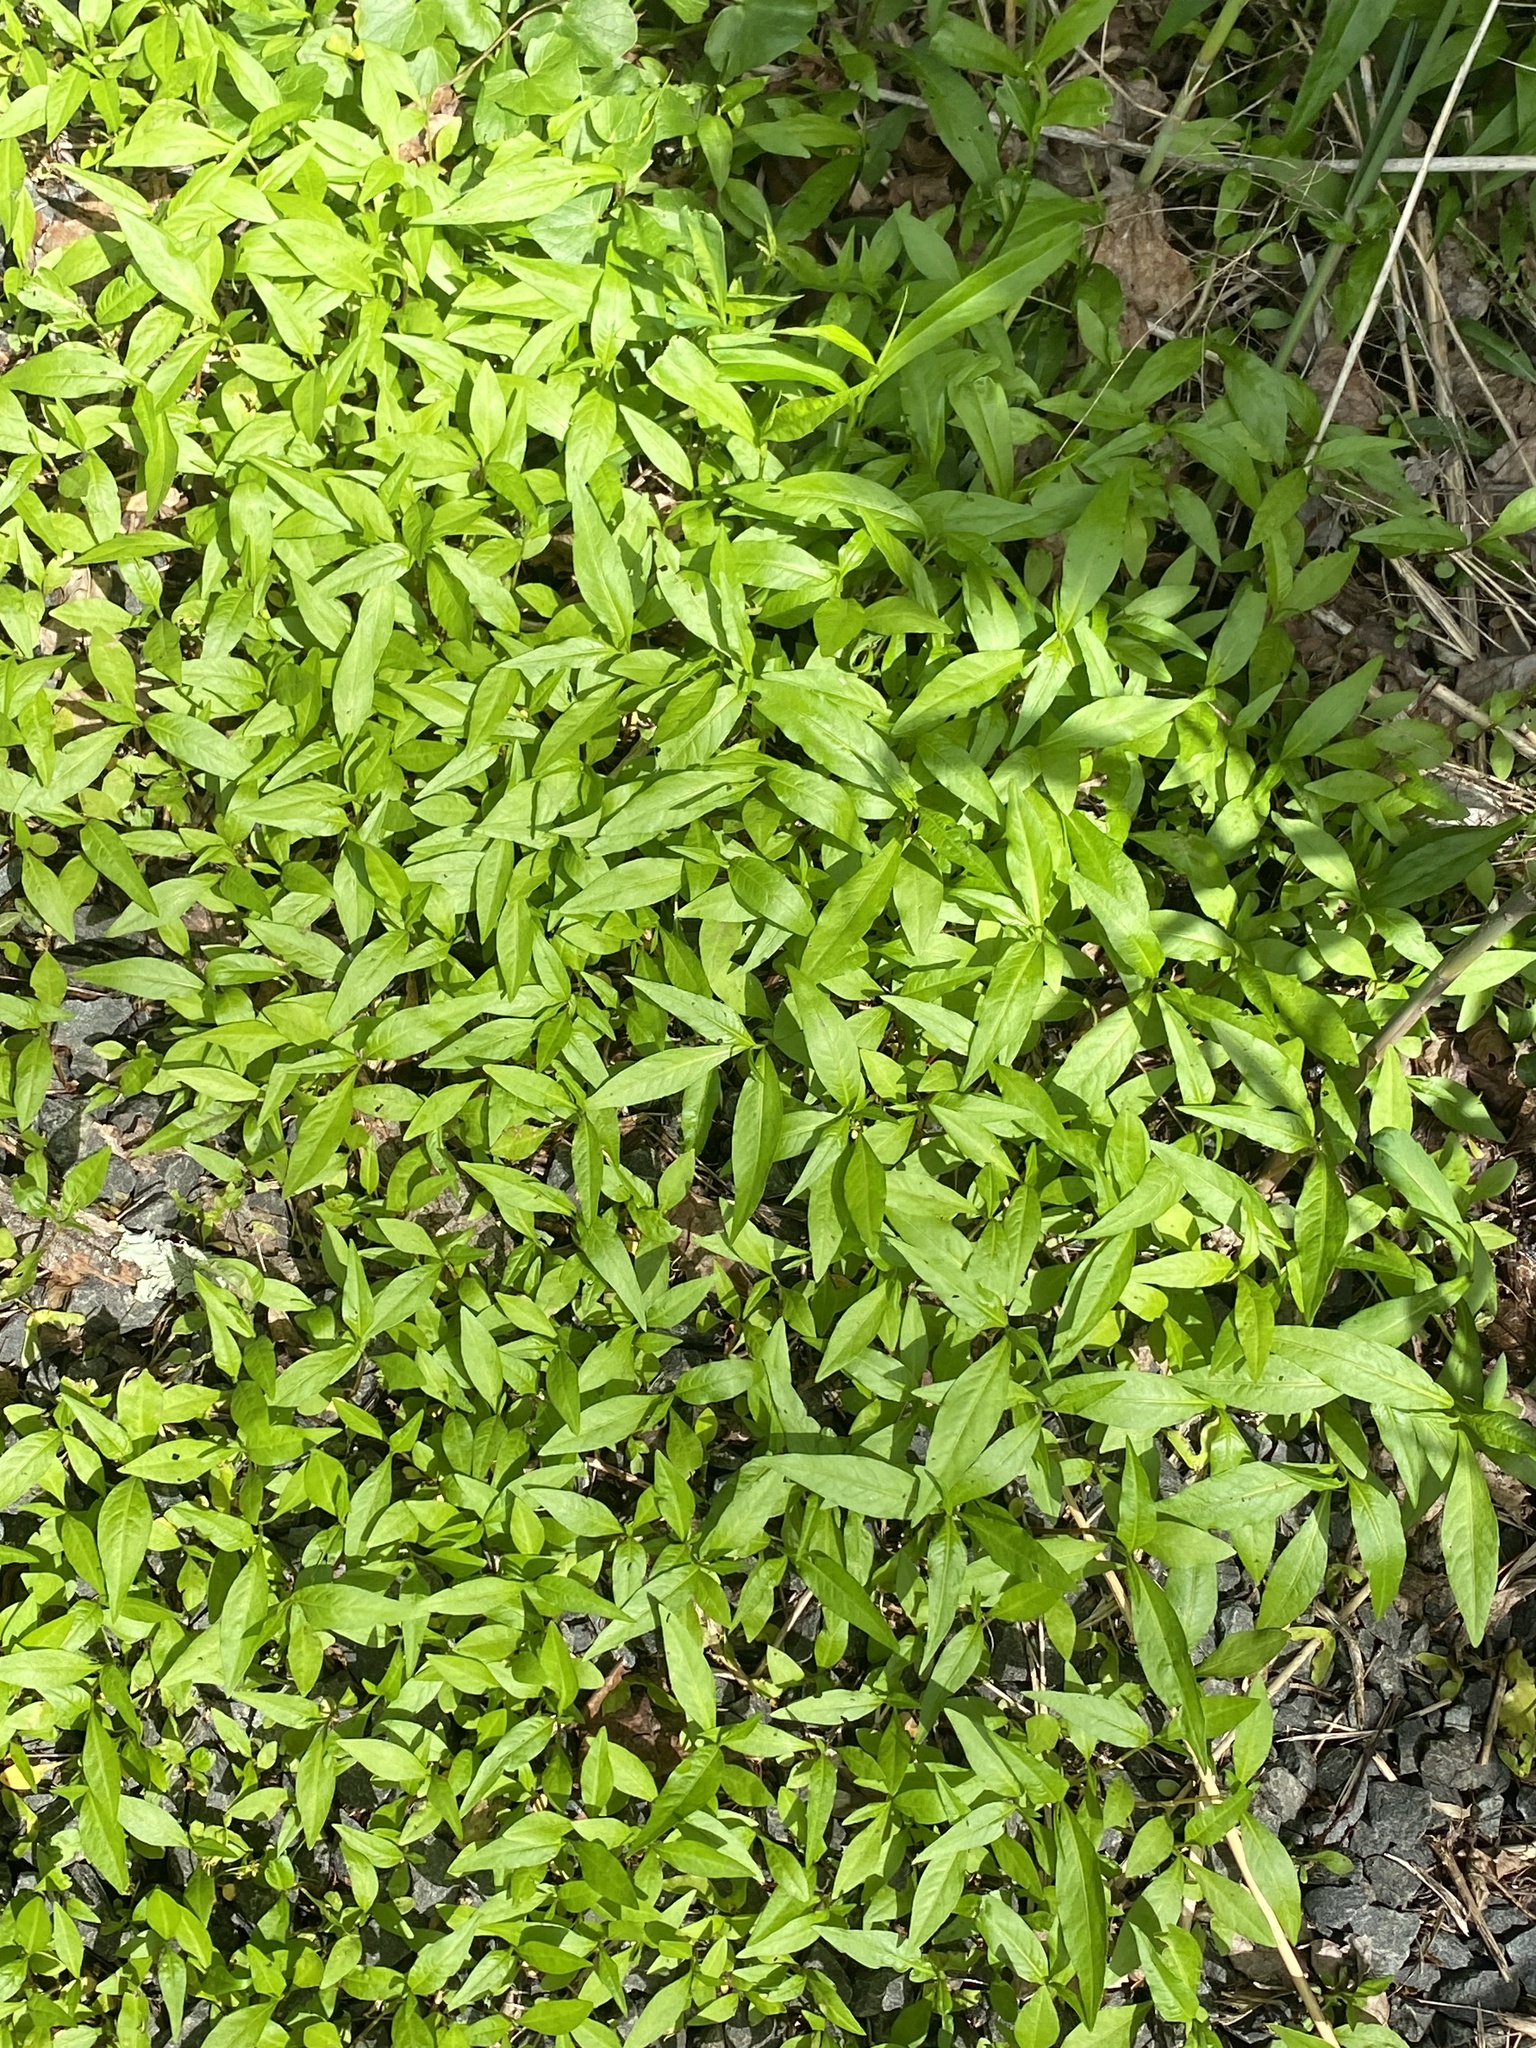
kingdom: Plantae
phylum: Tracheophyta
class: Magnoliopsida
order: Caryophyllales
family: Polygonaceae
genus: Persicaria
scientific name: Persicaria punctata
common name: Dotted smartweed
